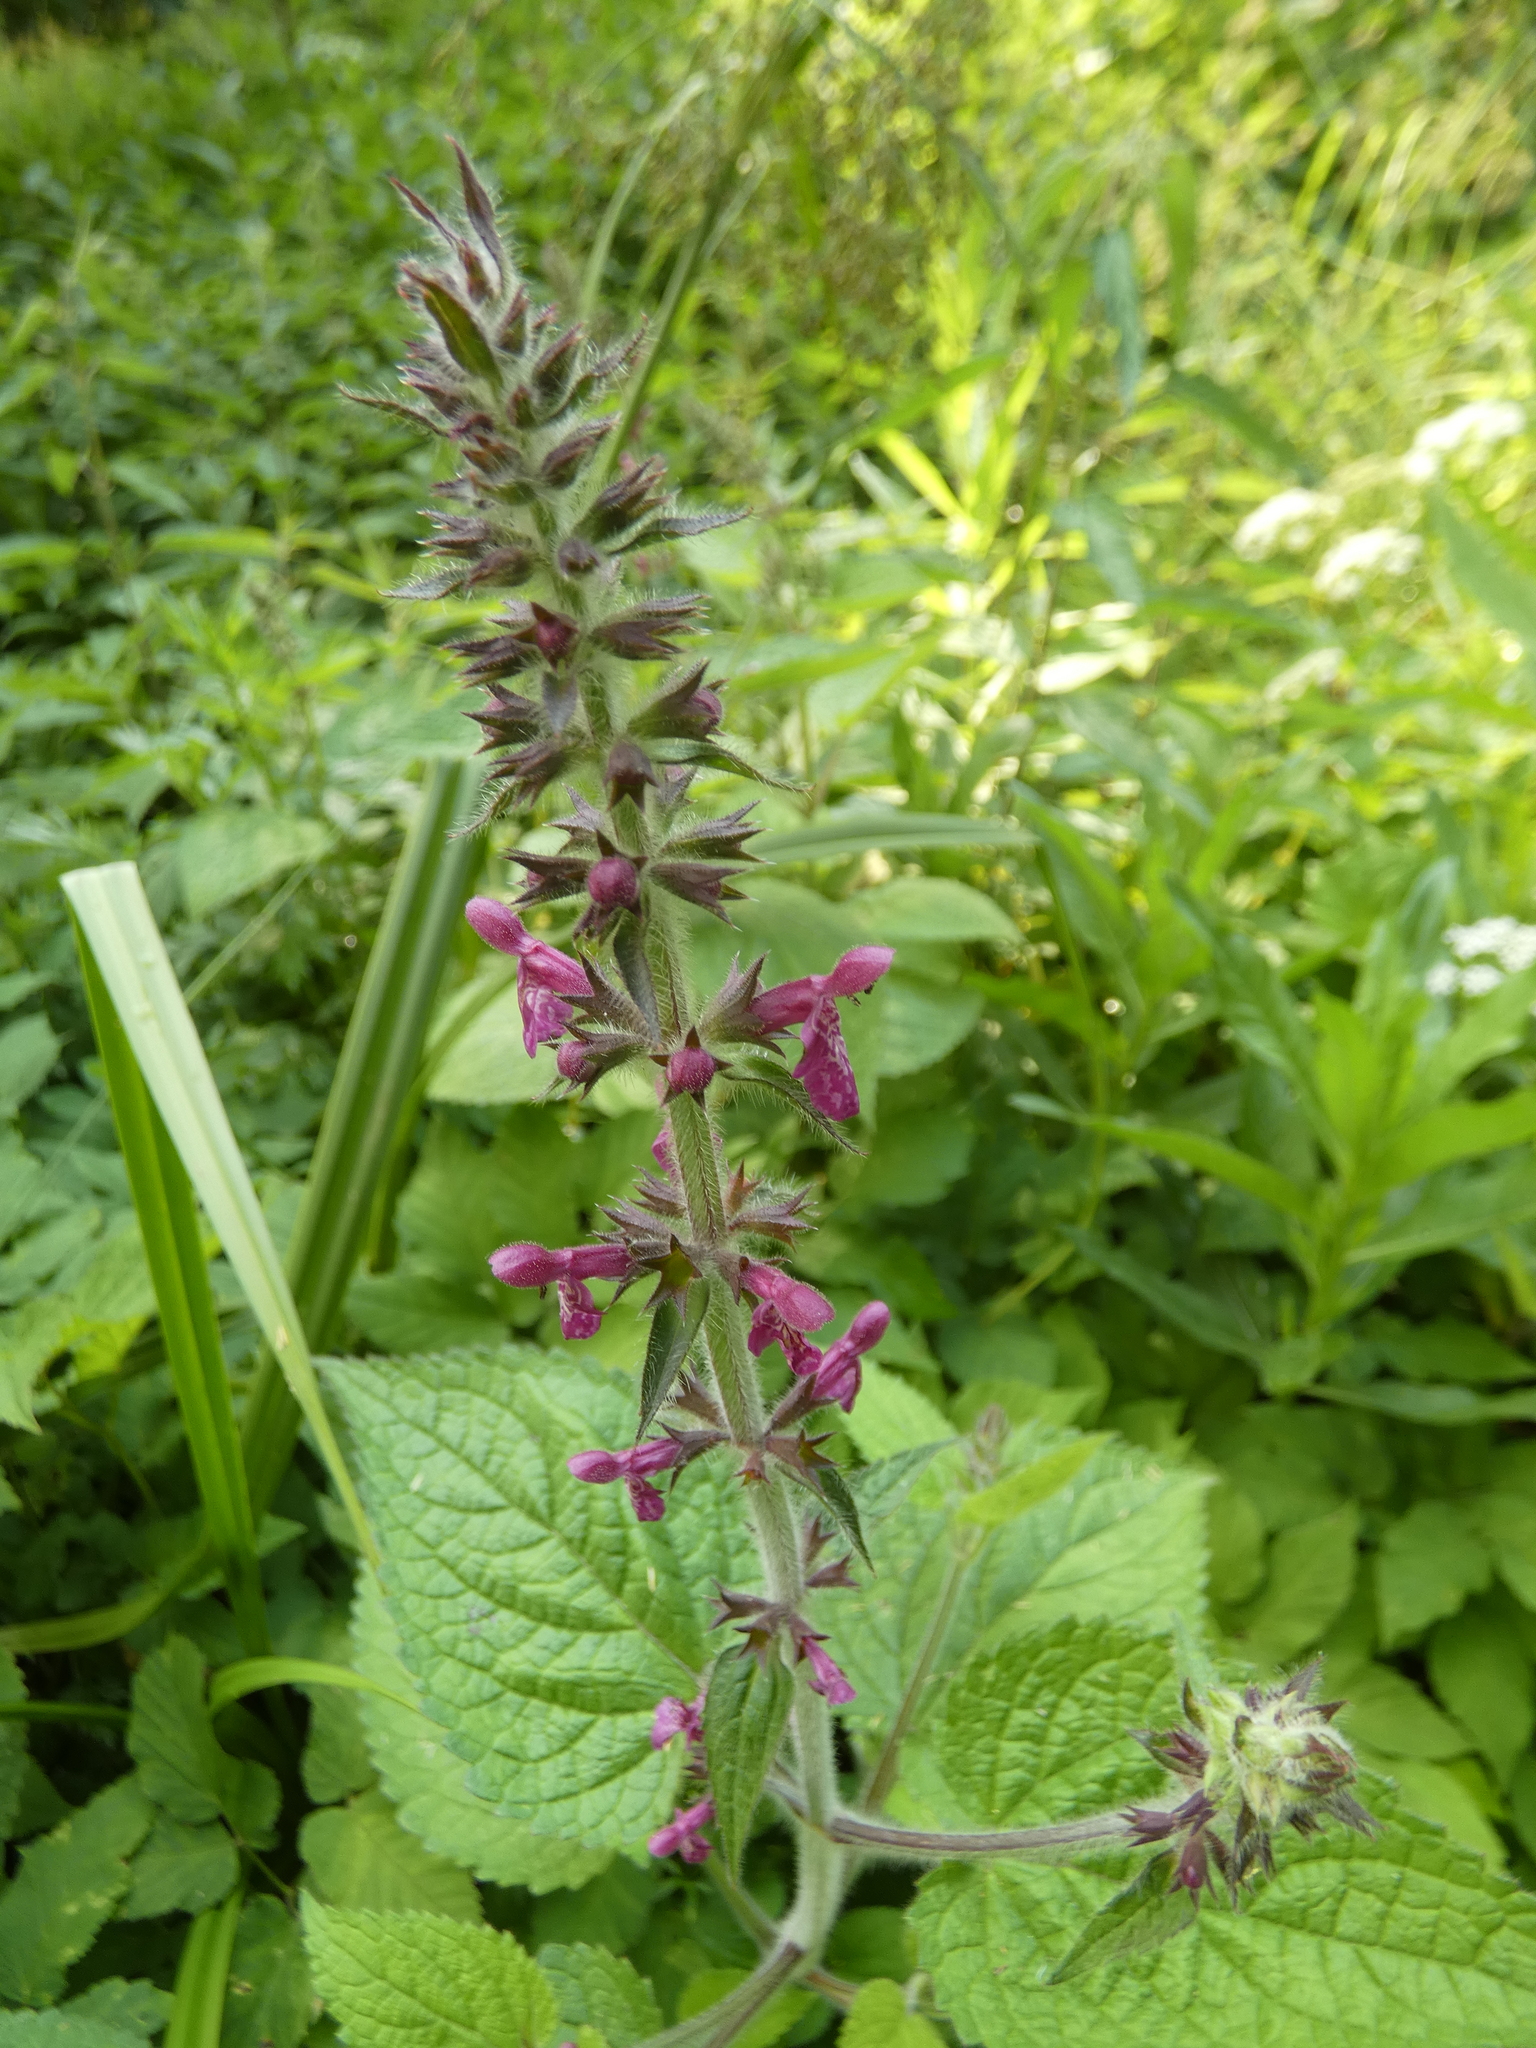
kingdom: Plantae
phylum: Tracheophyta
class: Magnoliopsida
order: Lamiales
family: Lamiaceae
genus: Stachys
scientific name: Stachys sylvatica
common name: Hedge woundwort
